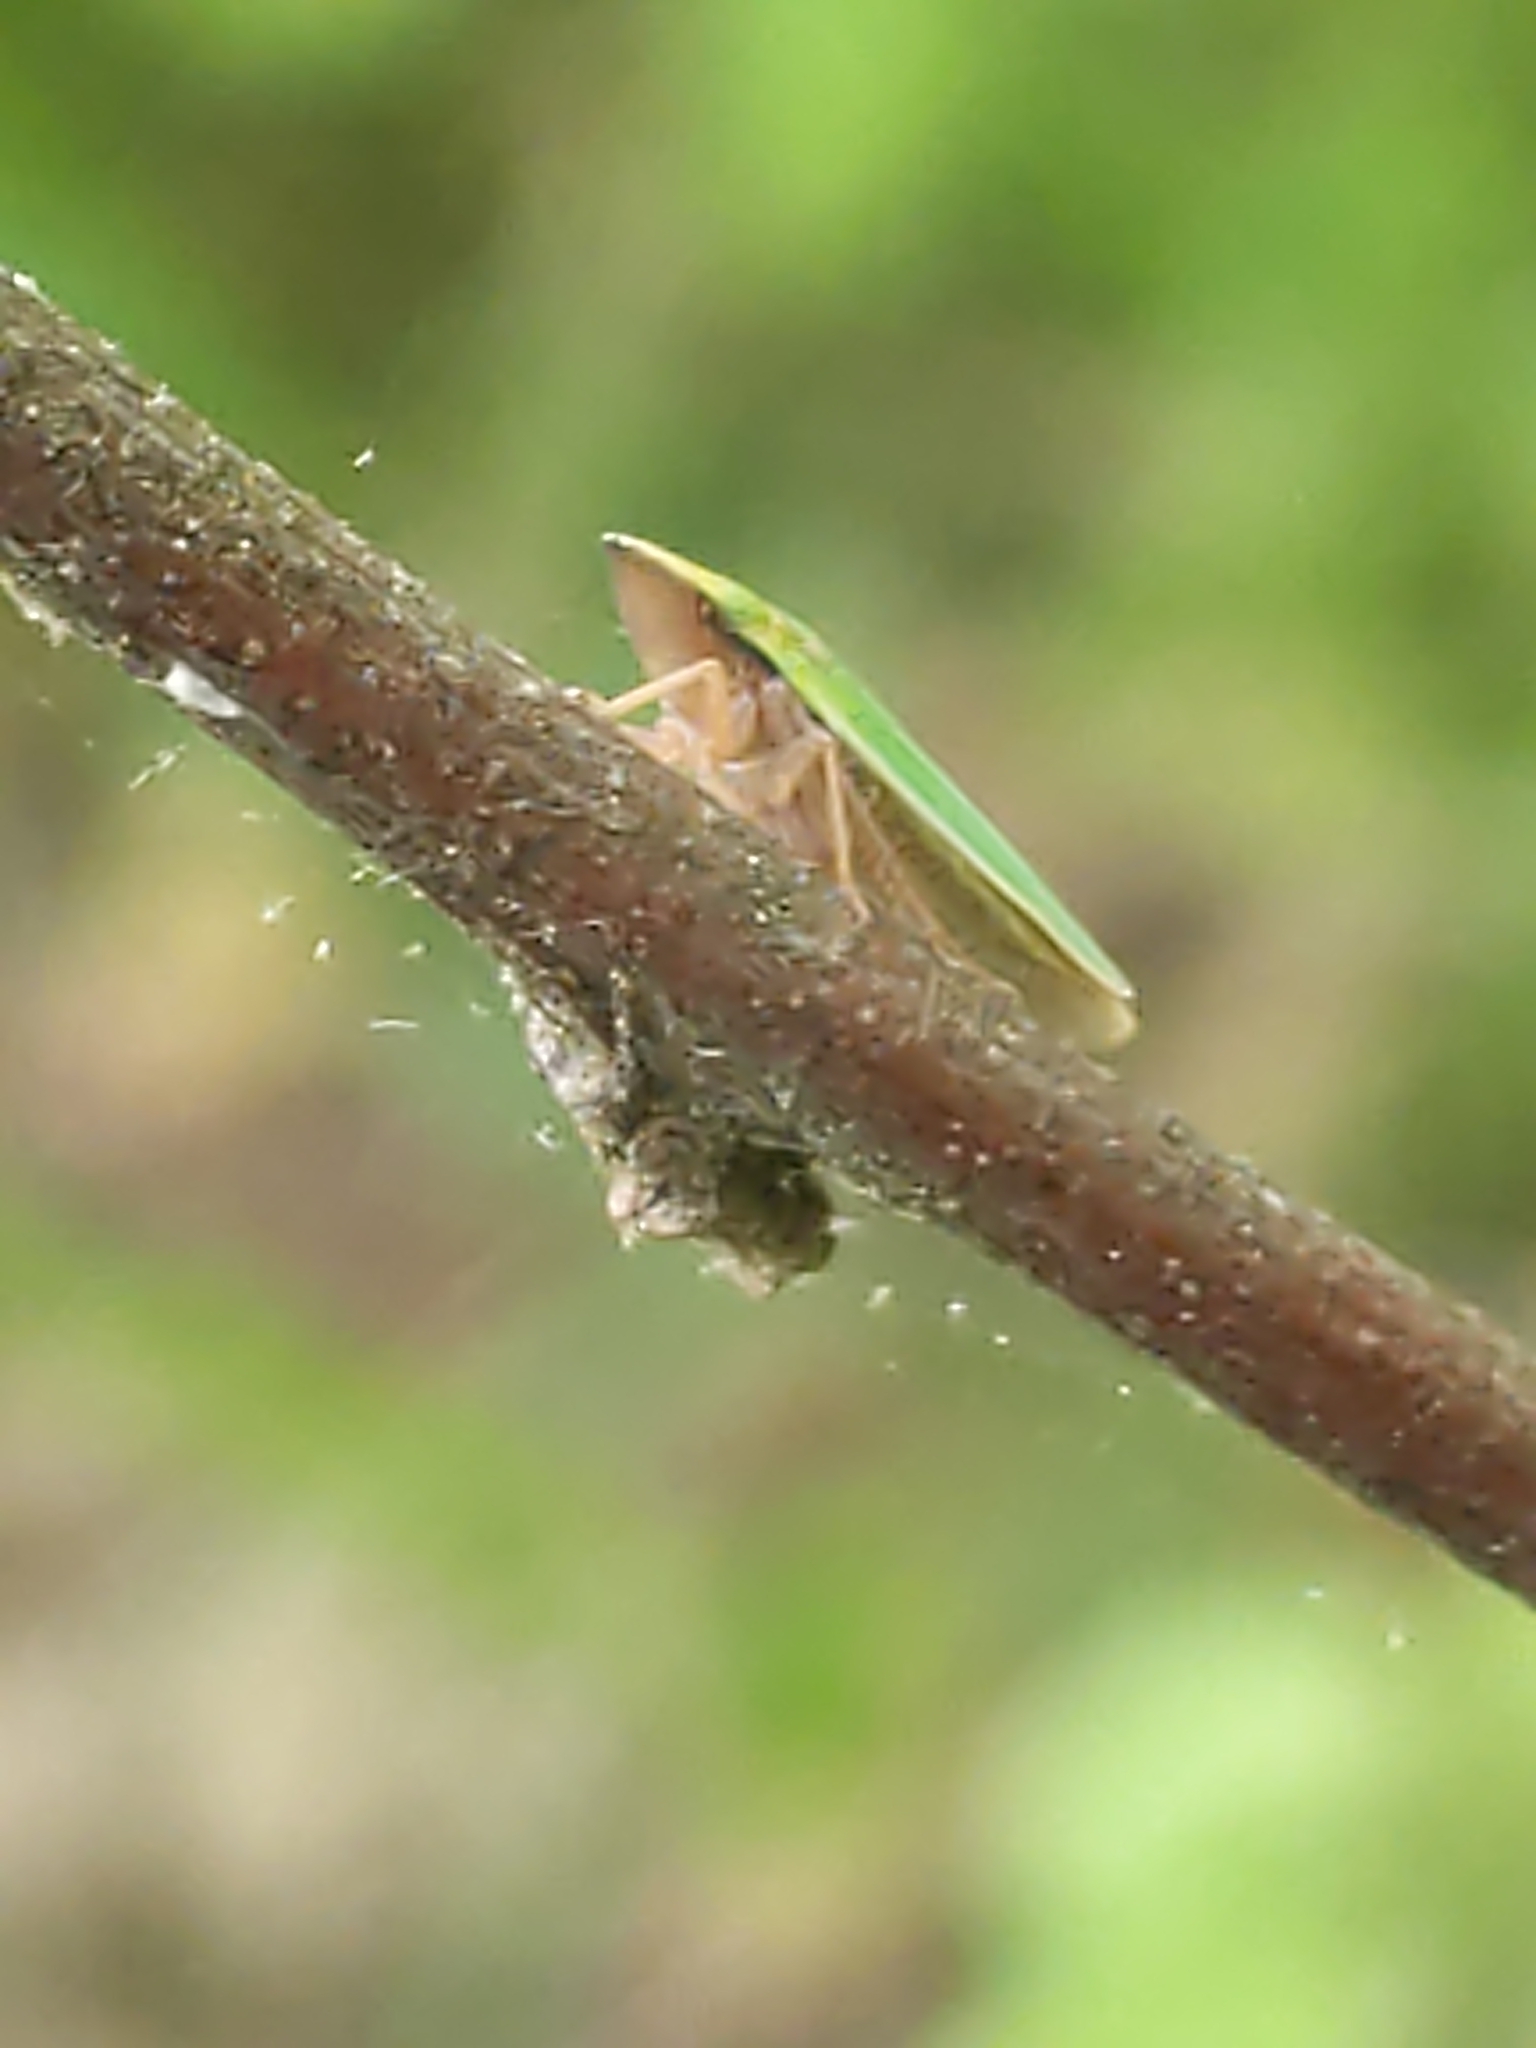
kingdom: Animalia
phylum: Arthropoda
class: Insecta
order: Hemiptera
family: Cicadellidae
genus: Draeculacephala
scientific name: Draeculacephala
